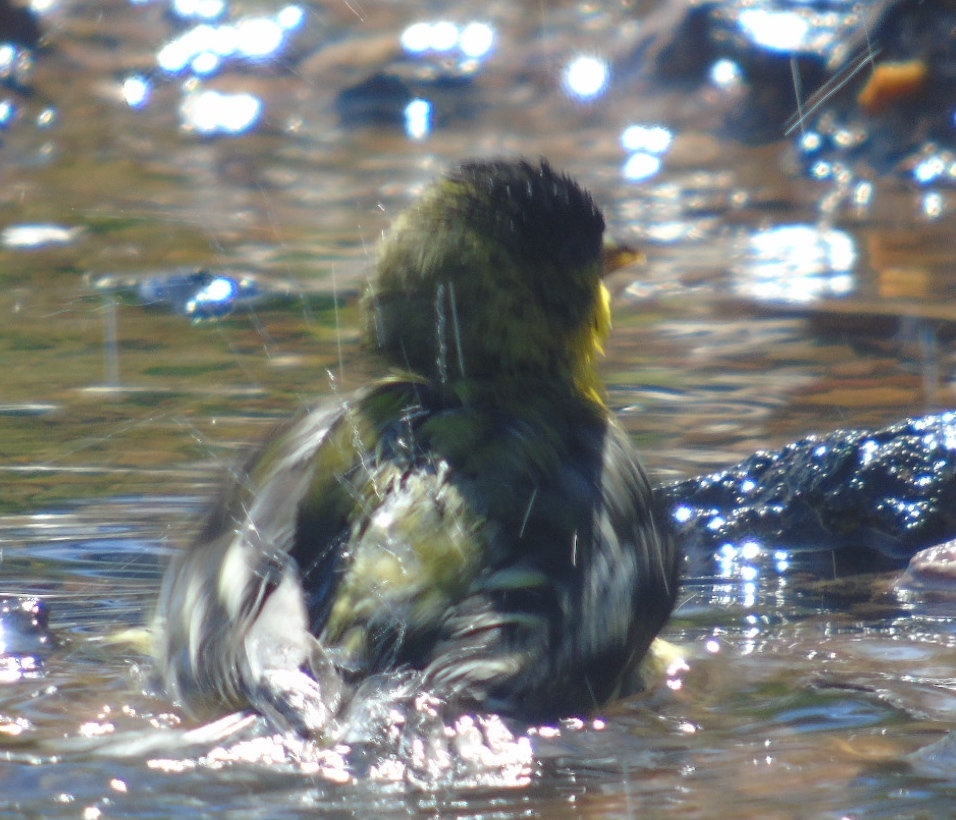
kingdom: Animalia
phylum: Chordata
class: Aves
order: Passeriformes
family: Fringillidae
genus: Spinus
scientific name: Spinus psaltria
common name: Lesser goldfinch
